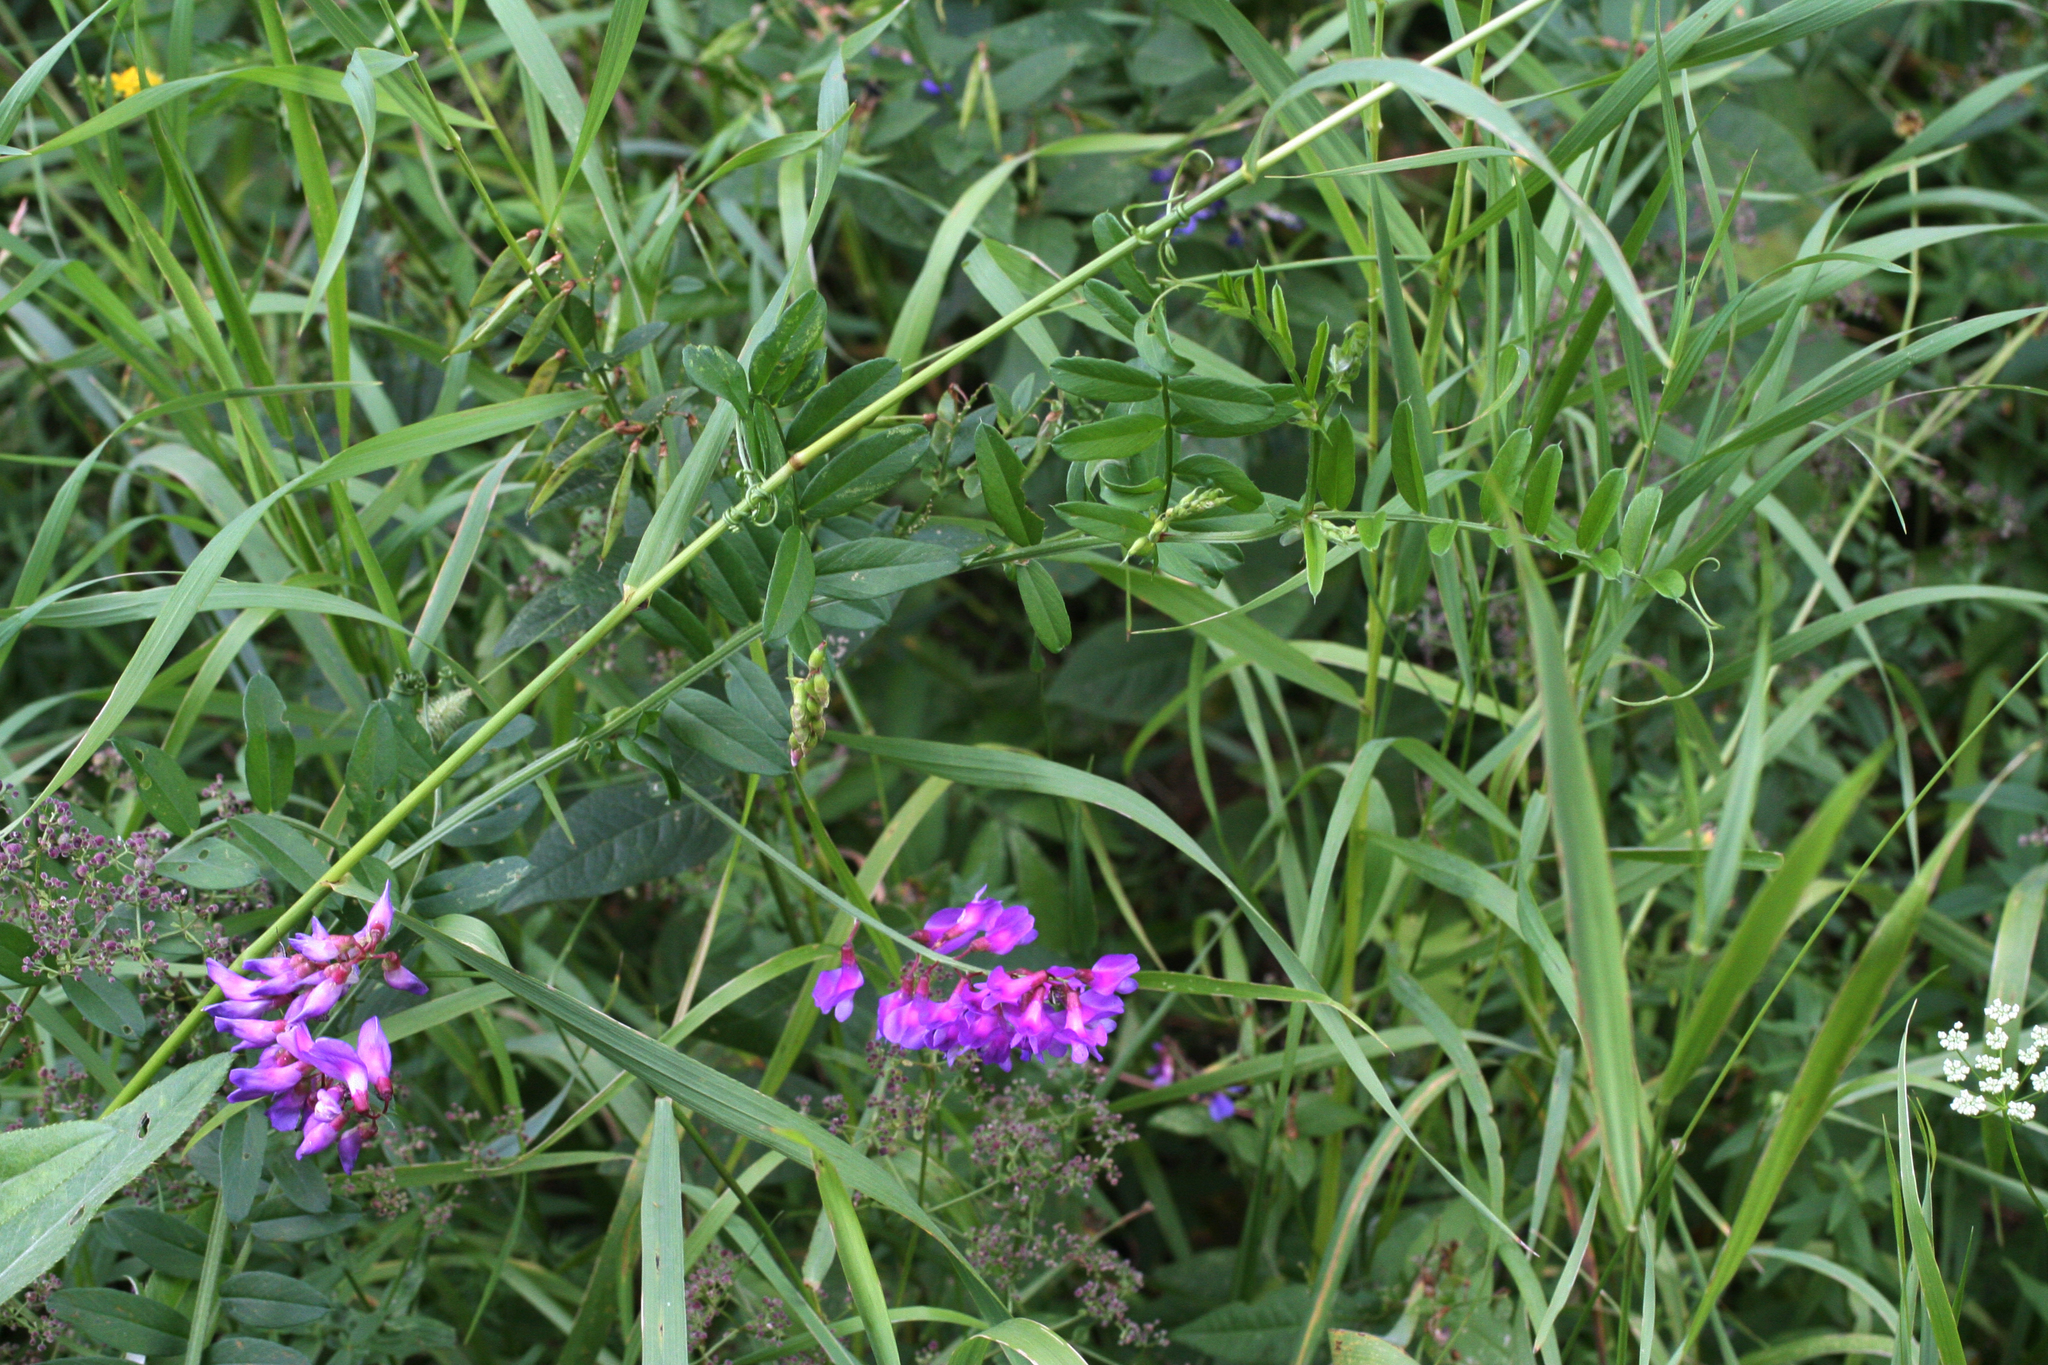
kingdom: Plantae
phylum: Tracheophyta
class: Magnoliopsida
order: Fabales
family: Fabaceae
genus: Vicia
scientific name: Vicia amoena
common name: Cheder ebs
